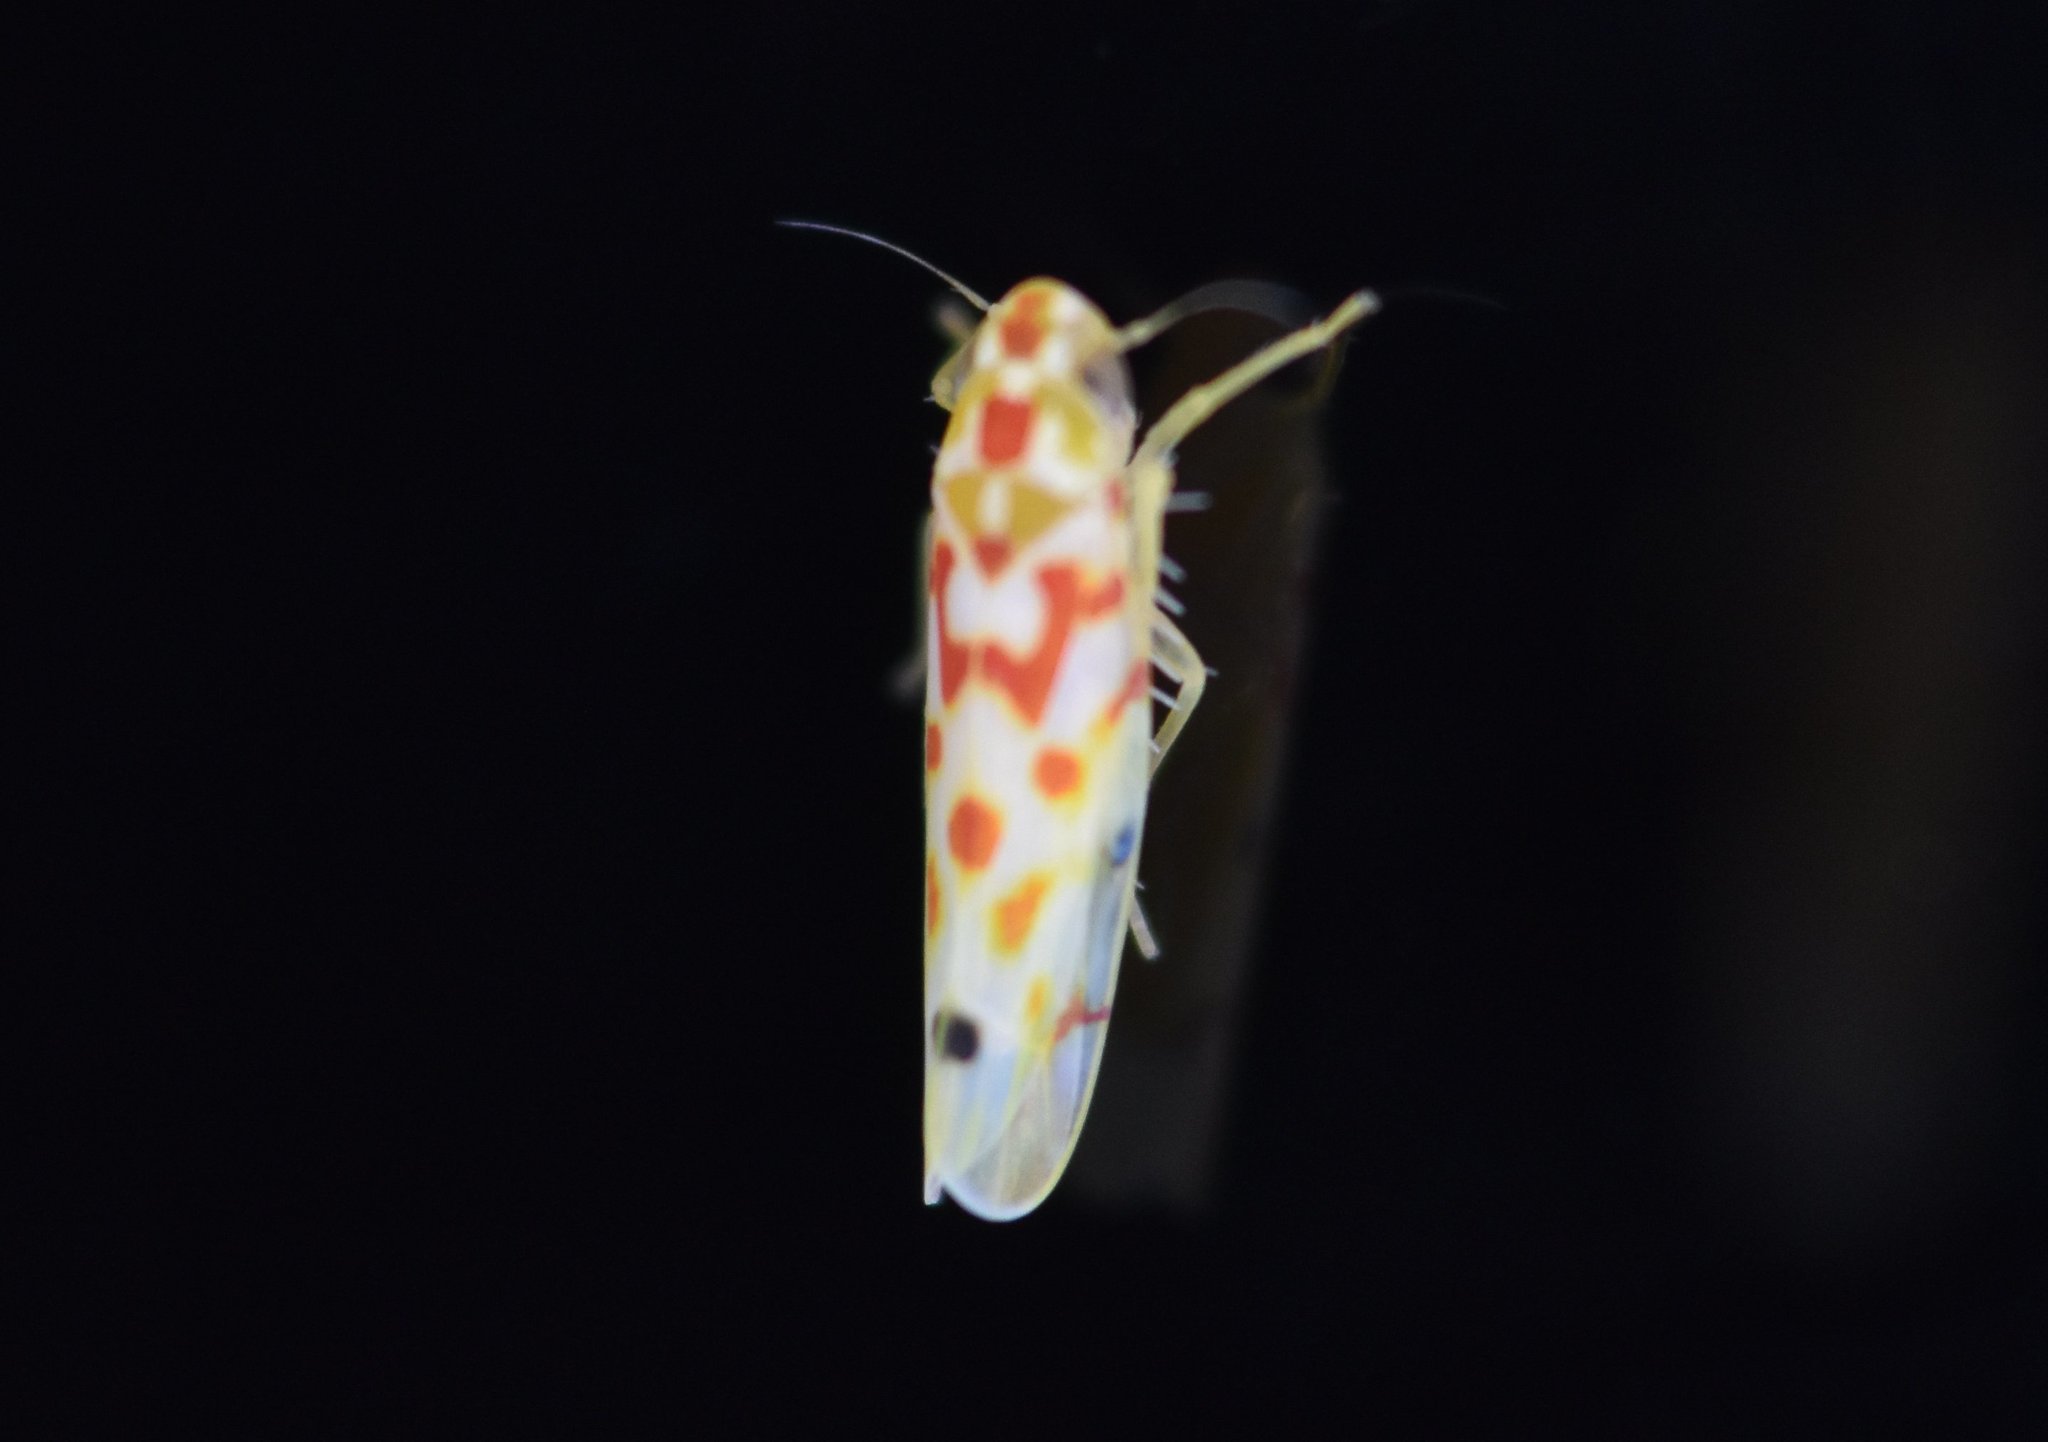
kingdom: Animalia
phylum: Arthropoda
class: Insecta
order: Hemiptera
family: Cicadellidae
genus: Eratoneura
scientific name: Eratoneura opulenta
